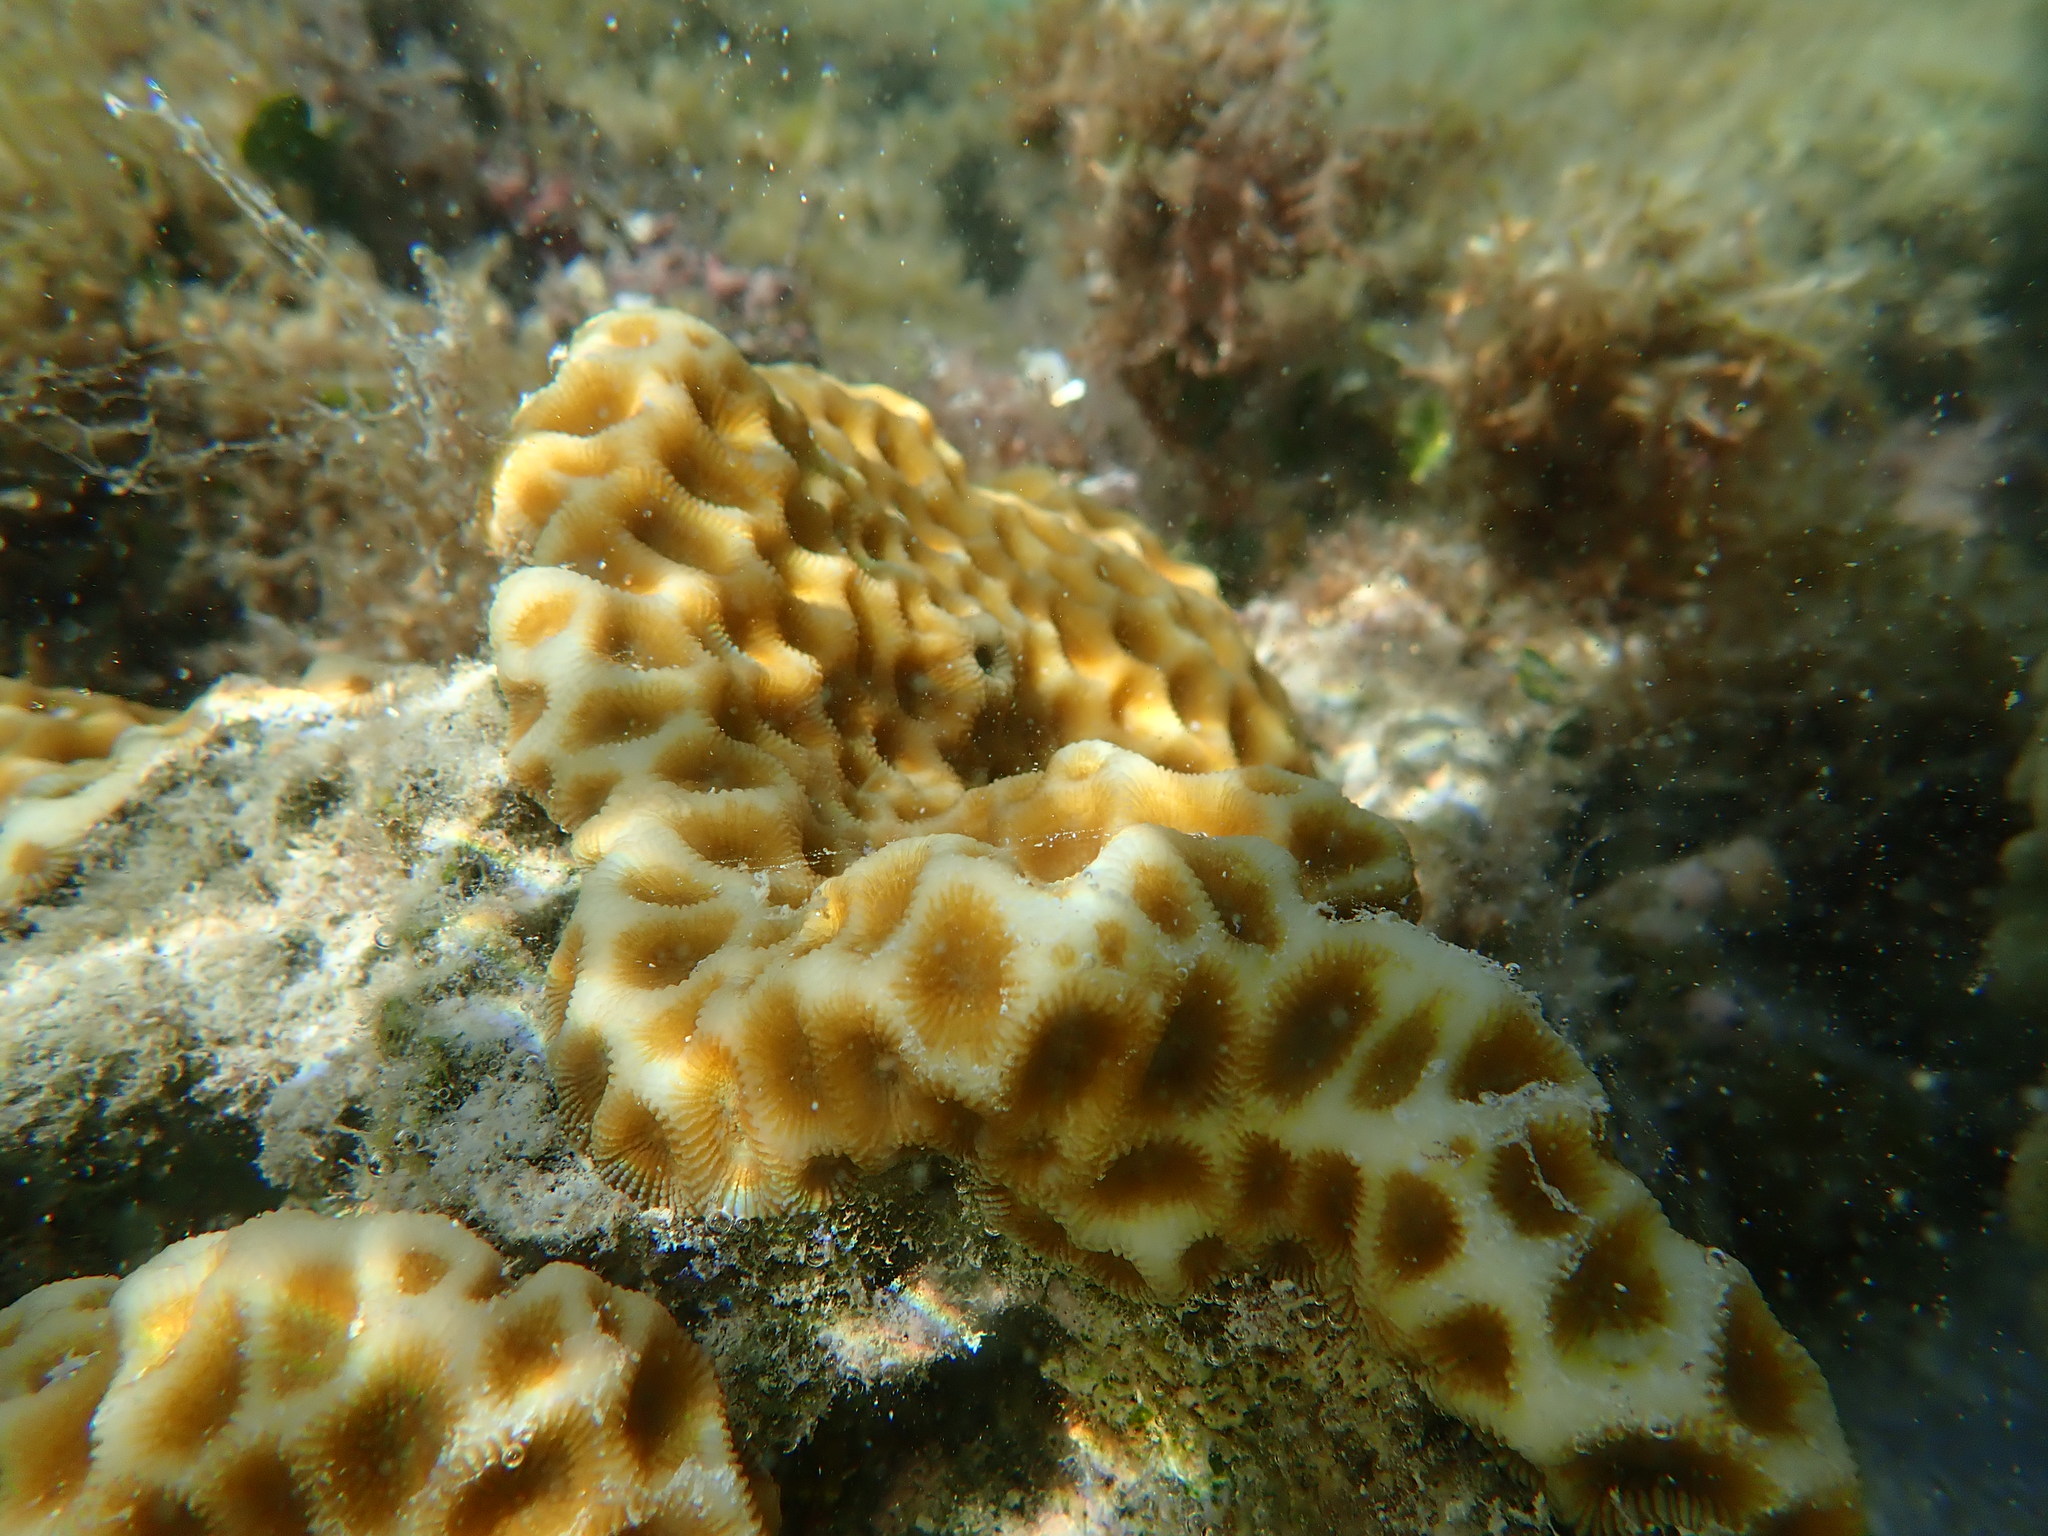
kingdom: Animalia
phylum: Cnidaria
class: Anthozoa
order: Scleractinia
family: Merulinidae
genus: Favites
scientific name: Favites halicora
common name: Larger star coral
